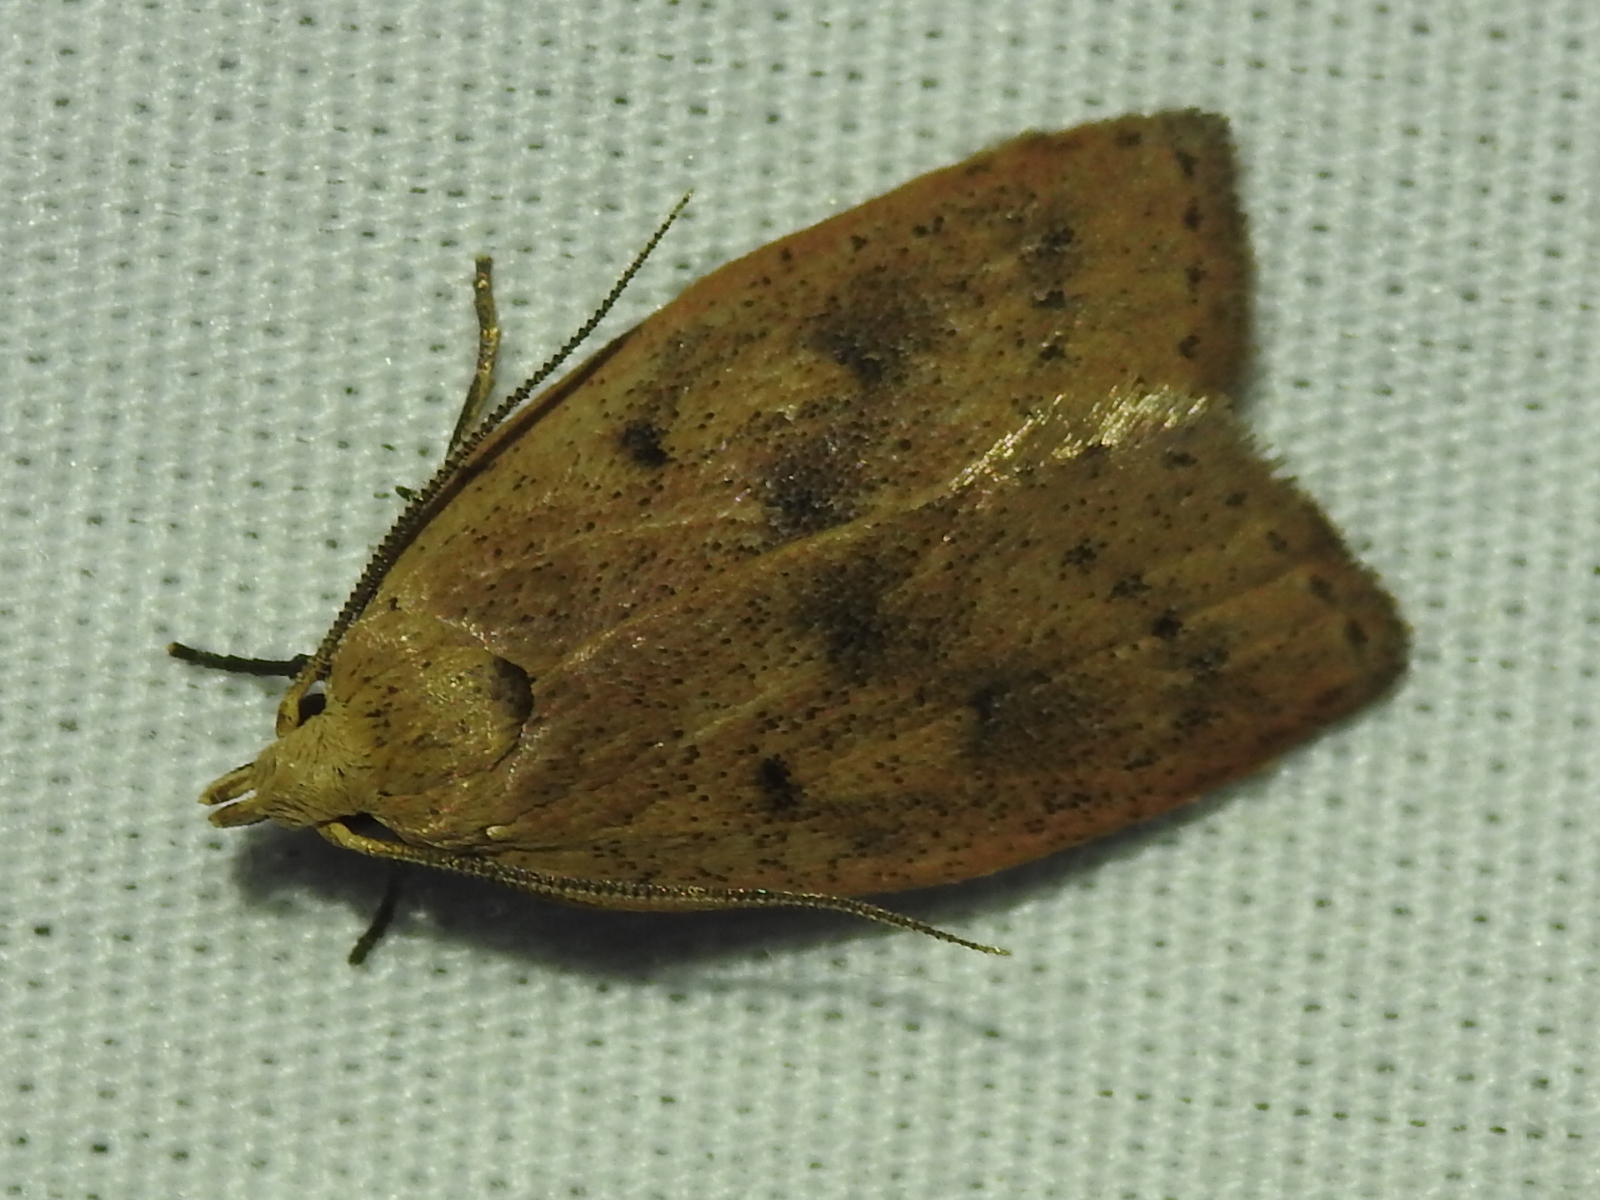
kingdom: Animalia
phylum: Arthropoda
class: Insecta
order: Lepidoptera
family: Peleopodidae
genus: Machimia
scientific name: Machimia tentoriferella
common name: Gold-striped leaftier moth
